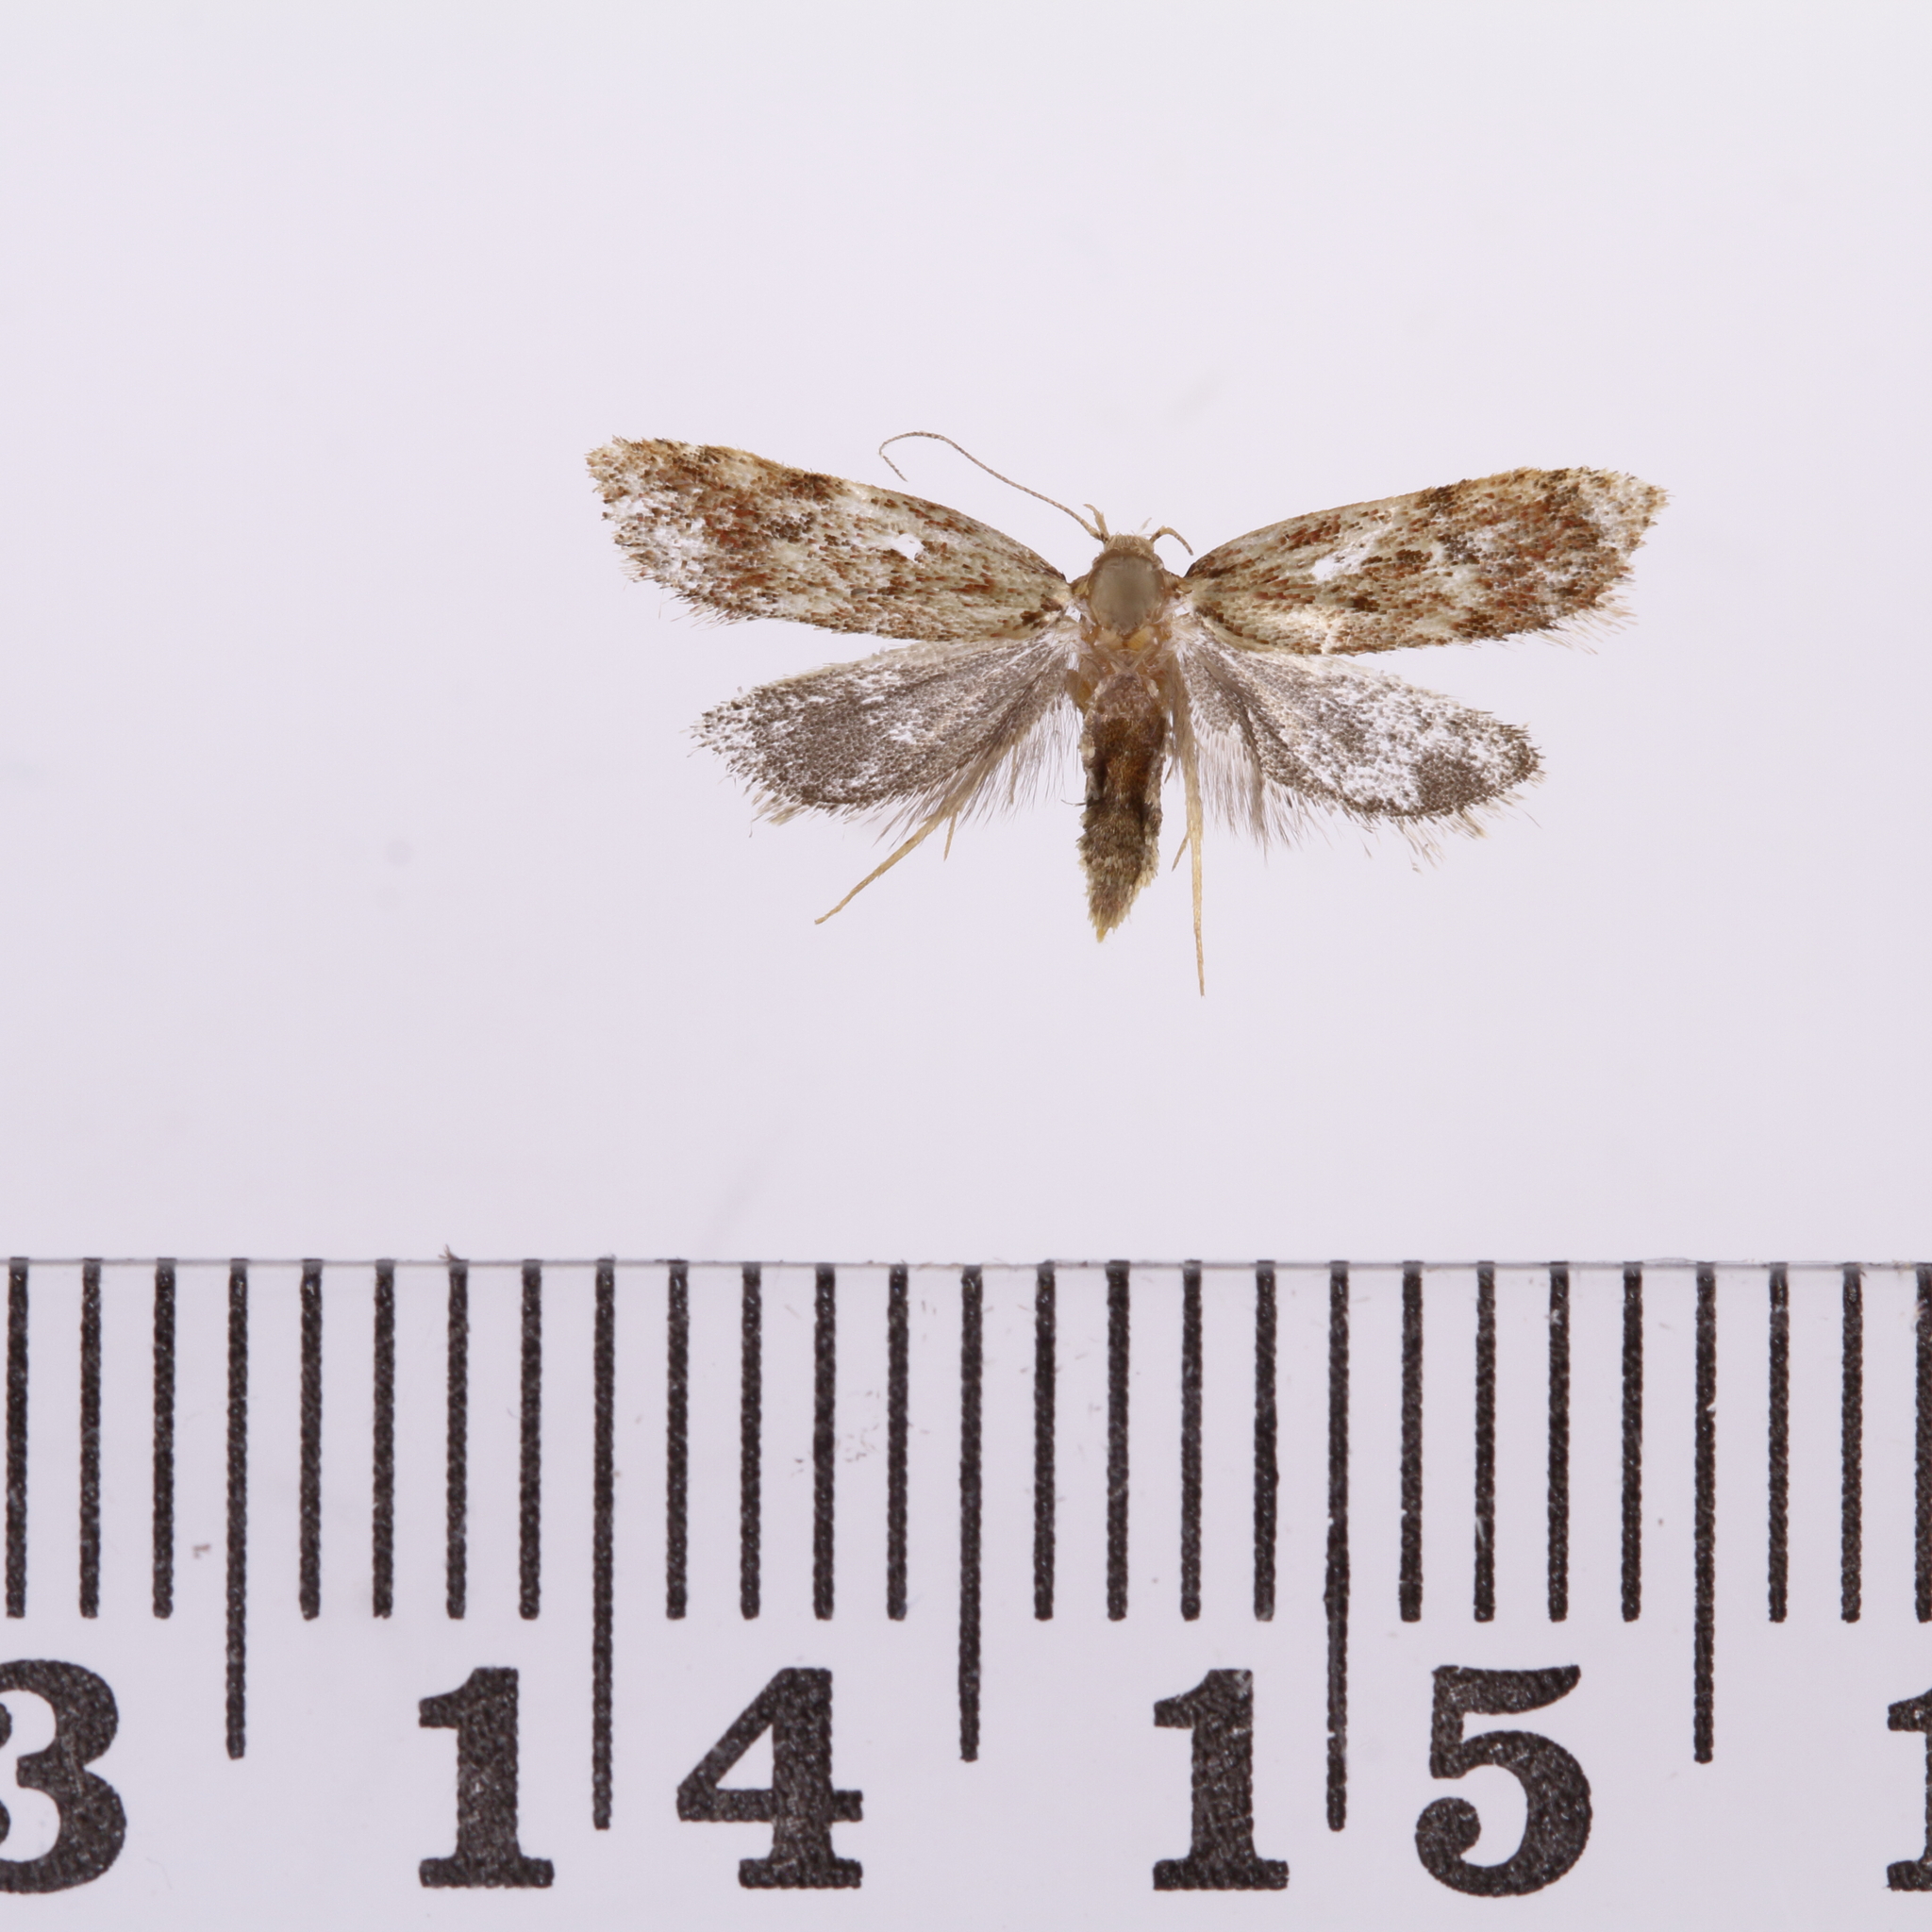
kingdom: Animalia
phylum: Arthropoda
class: Insecta
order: Lepidoptera
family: Oecophoridae
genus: Eulechria
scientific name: Eulechria zophoessa
